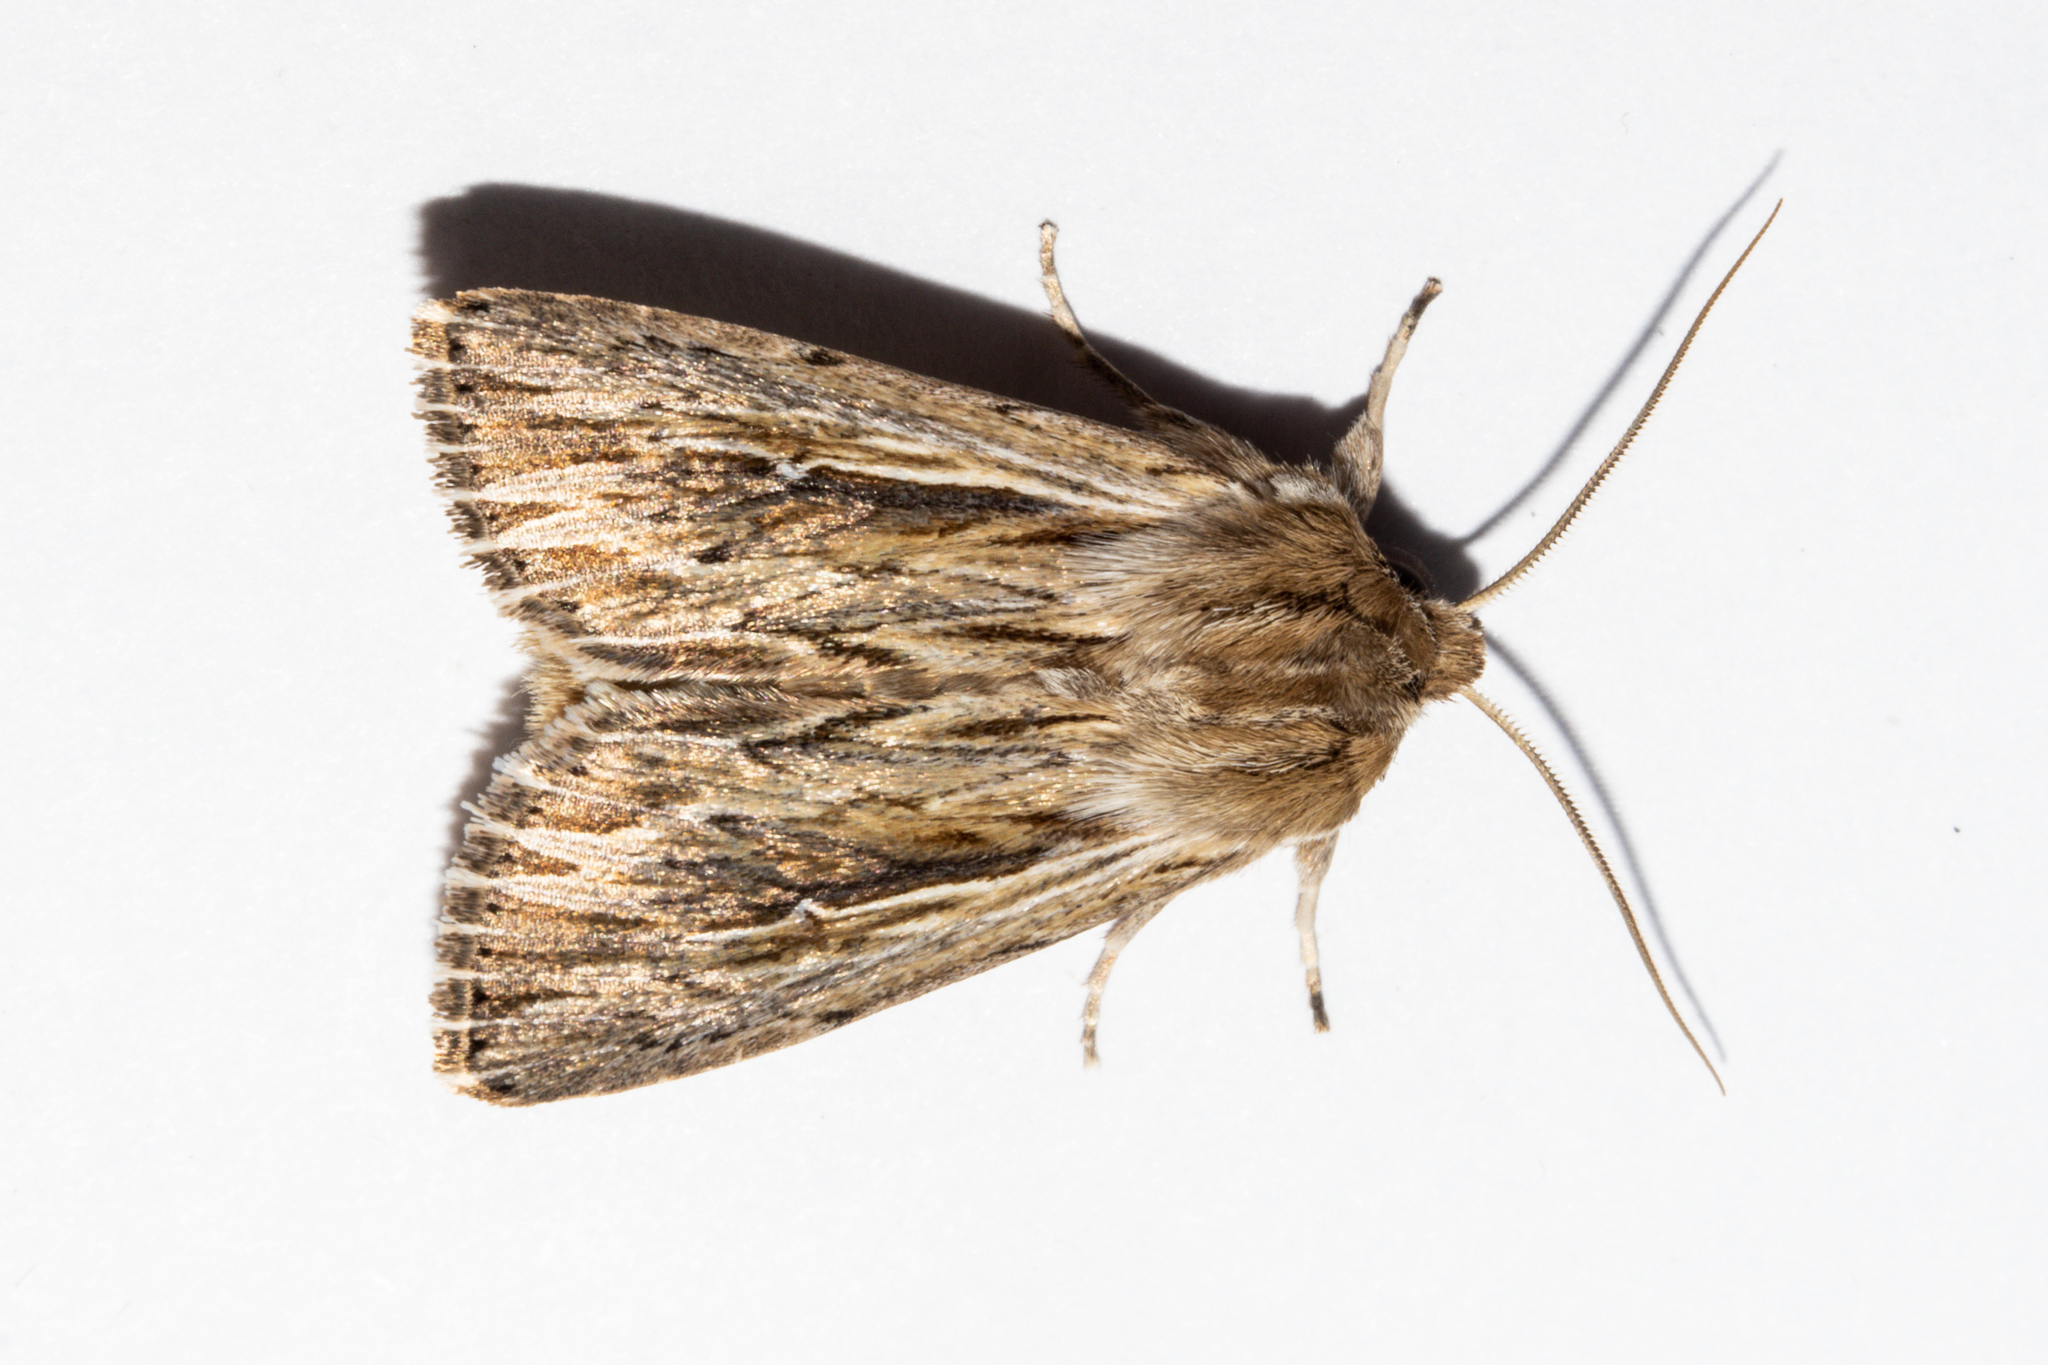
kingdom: Animalia
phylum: Arthropoda
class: Insecta
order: Lepidoptera
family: Noctuidae
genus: Persectania
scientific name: Persectania aversa
